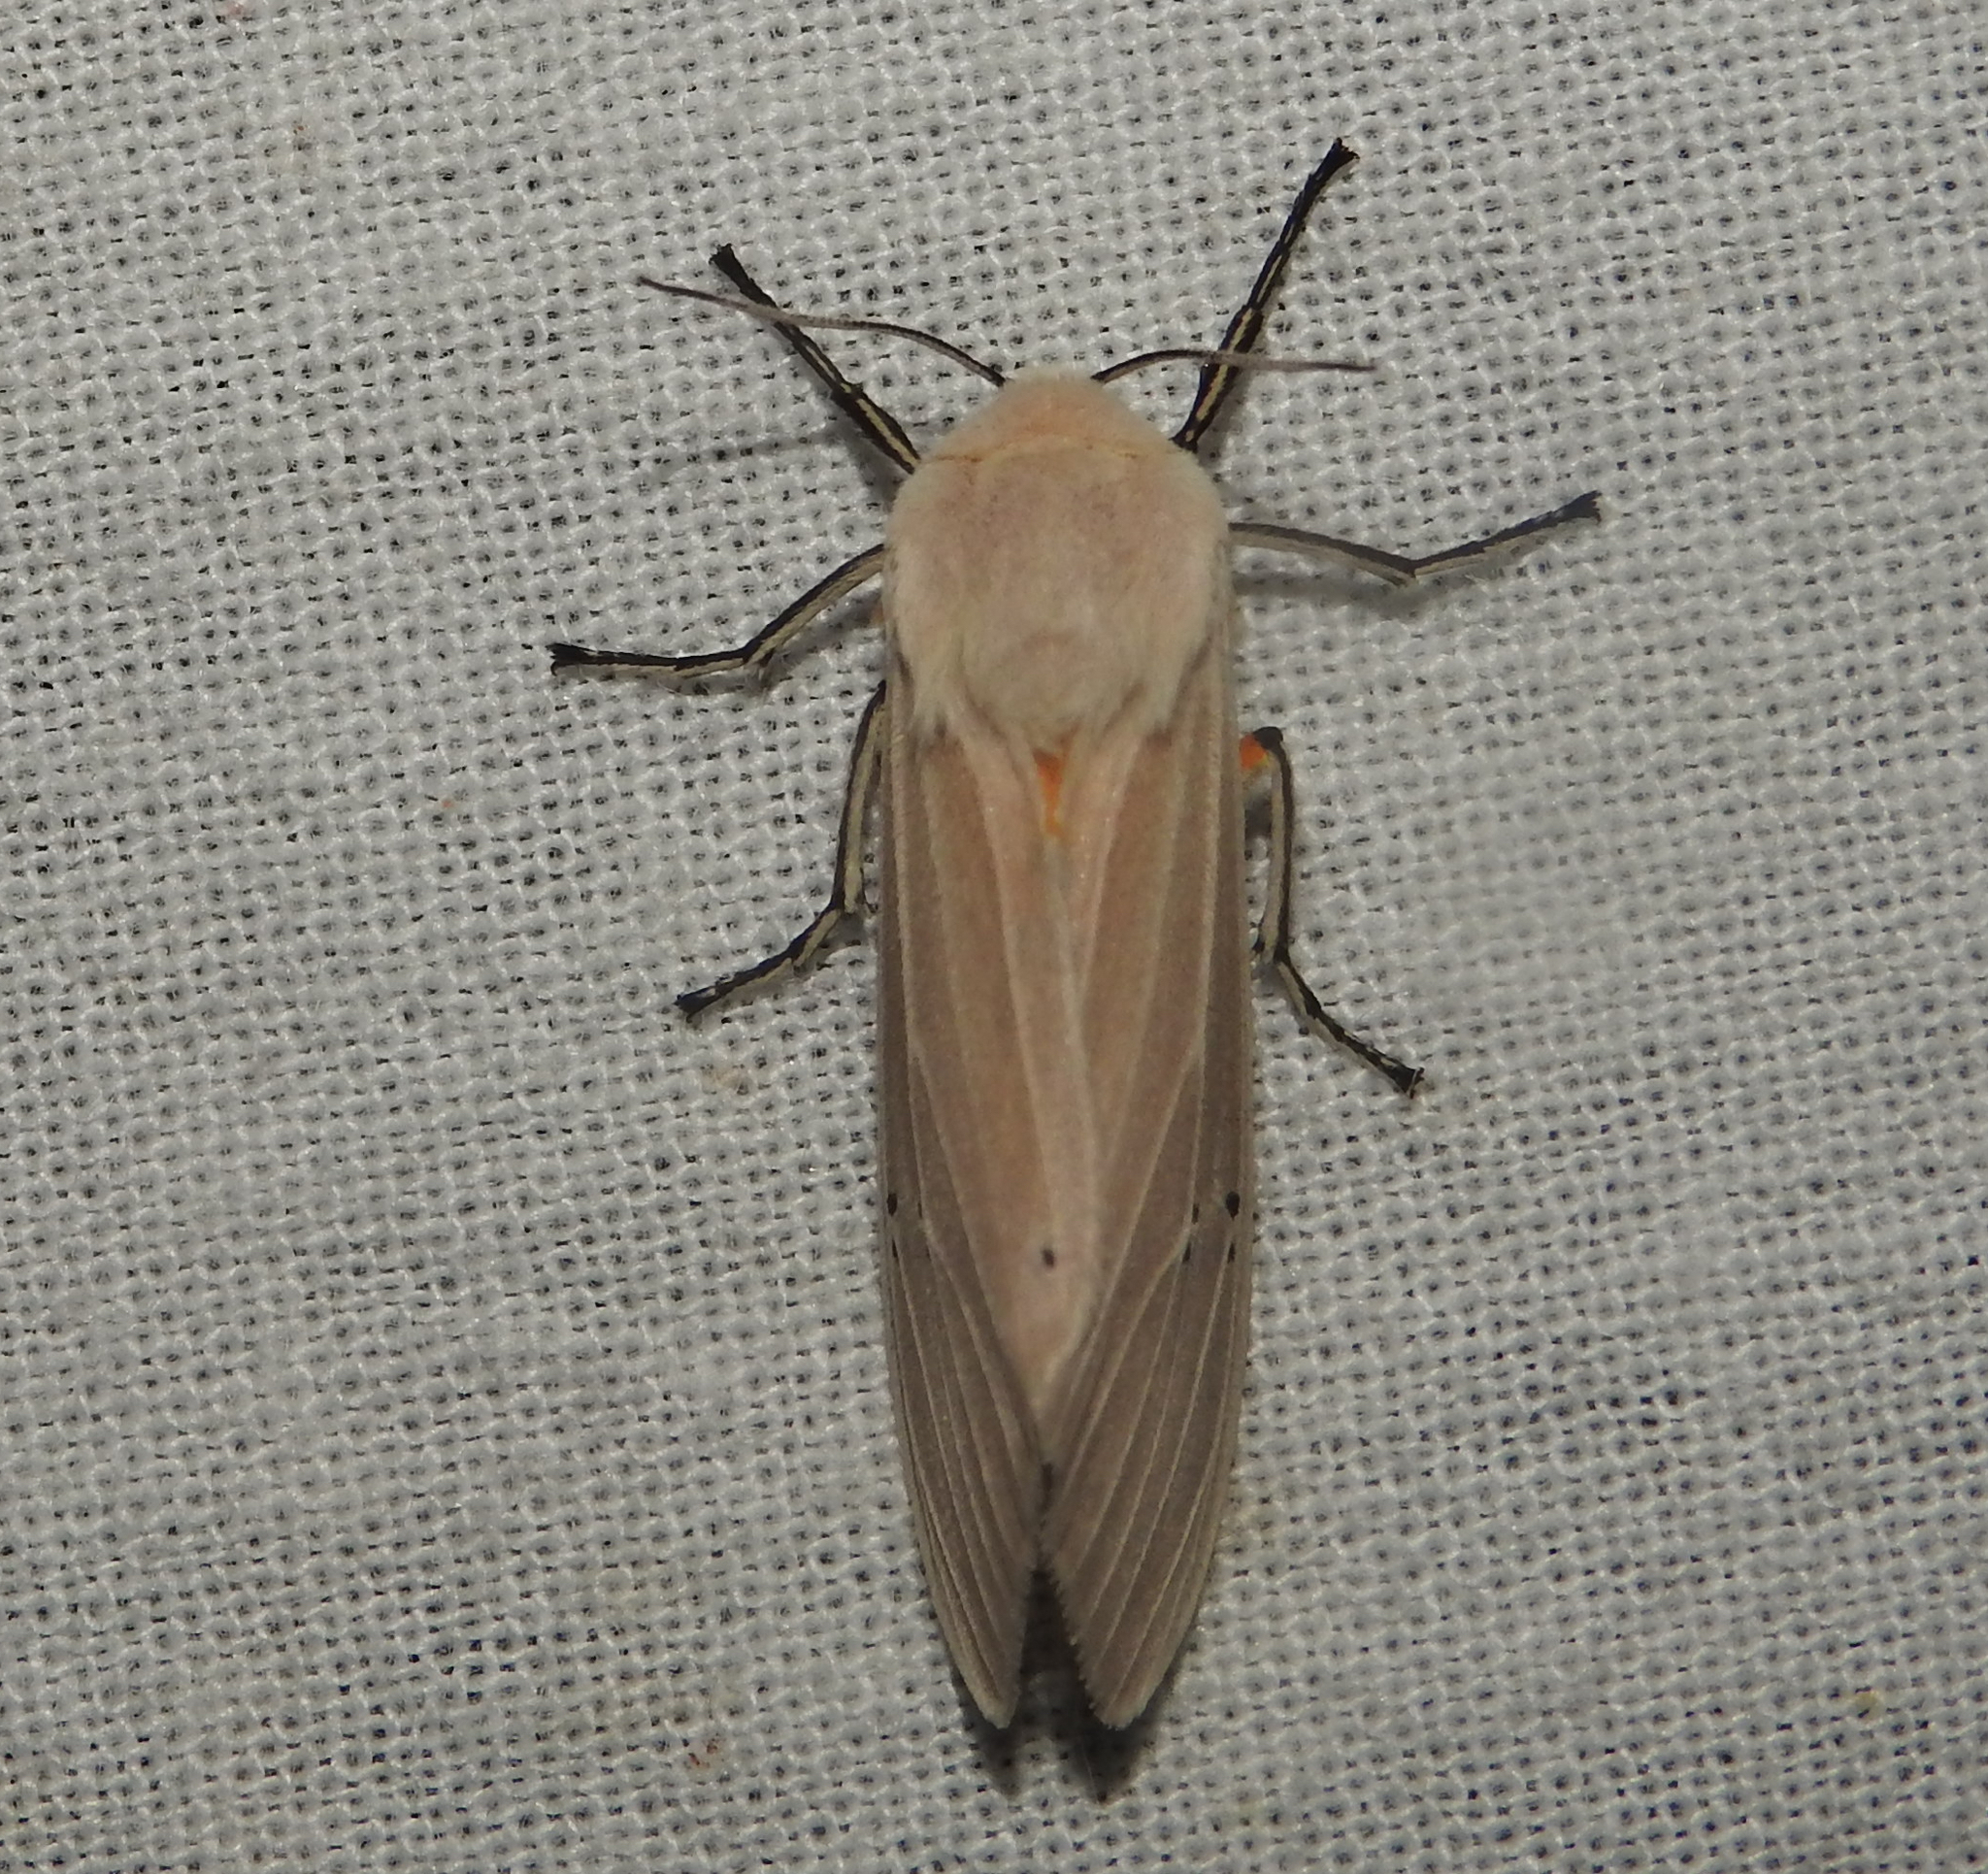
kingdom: Animalia
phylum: Arthropoda
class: Insecta
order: Lepidoptera
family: Erebidae
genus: Creatonotos
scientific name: Creatonotos transiens
